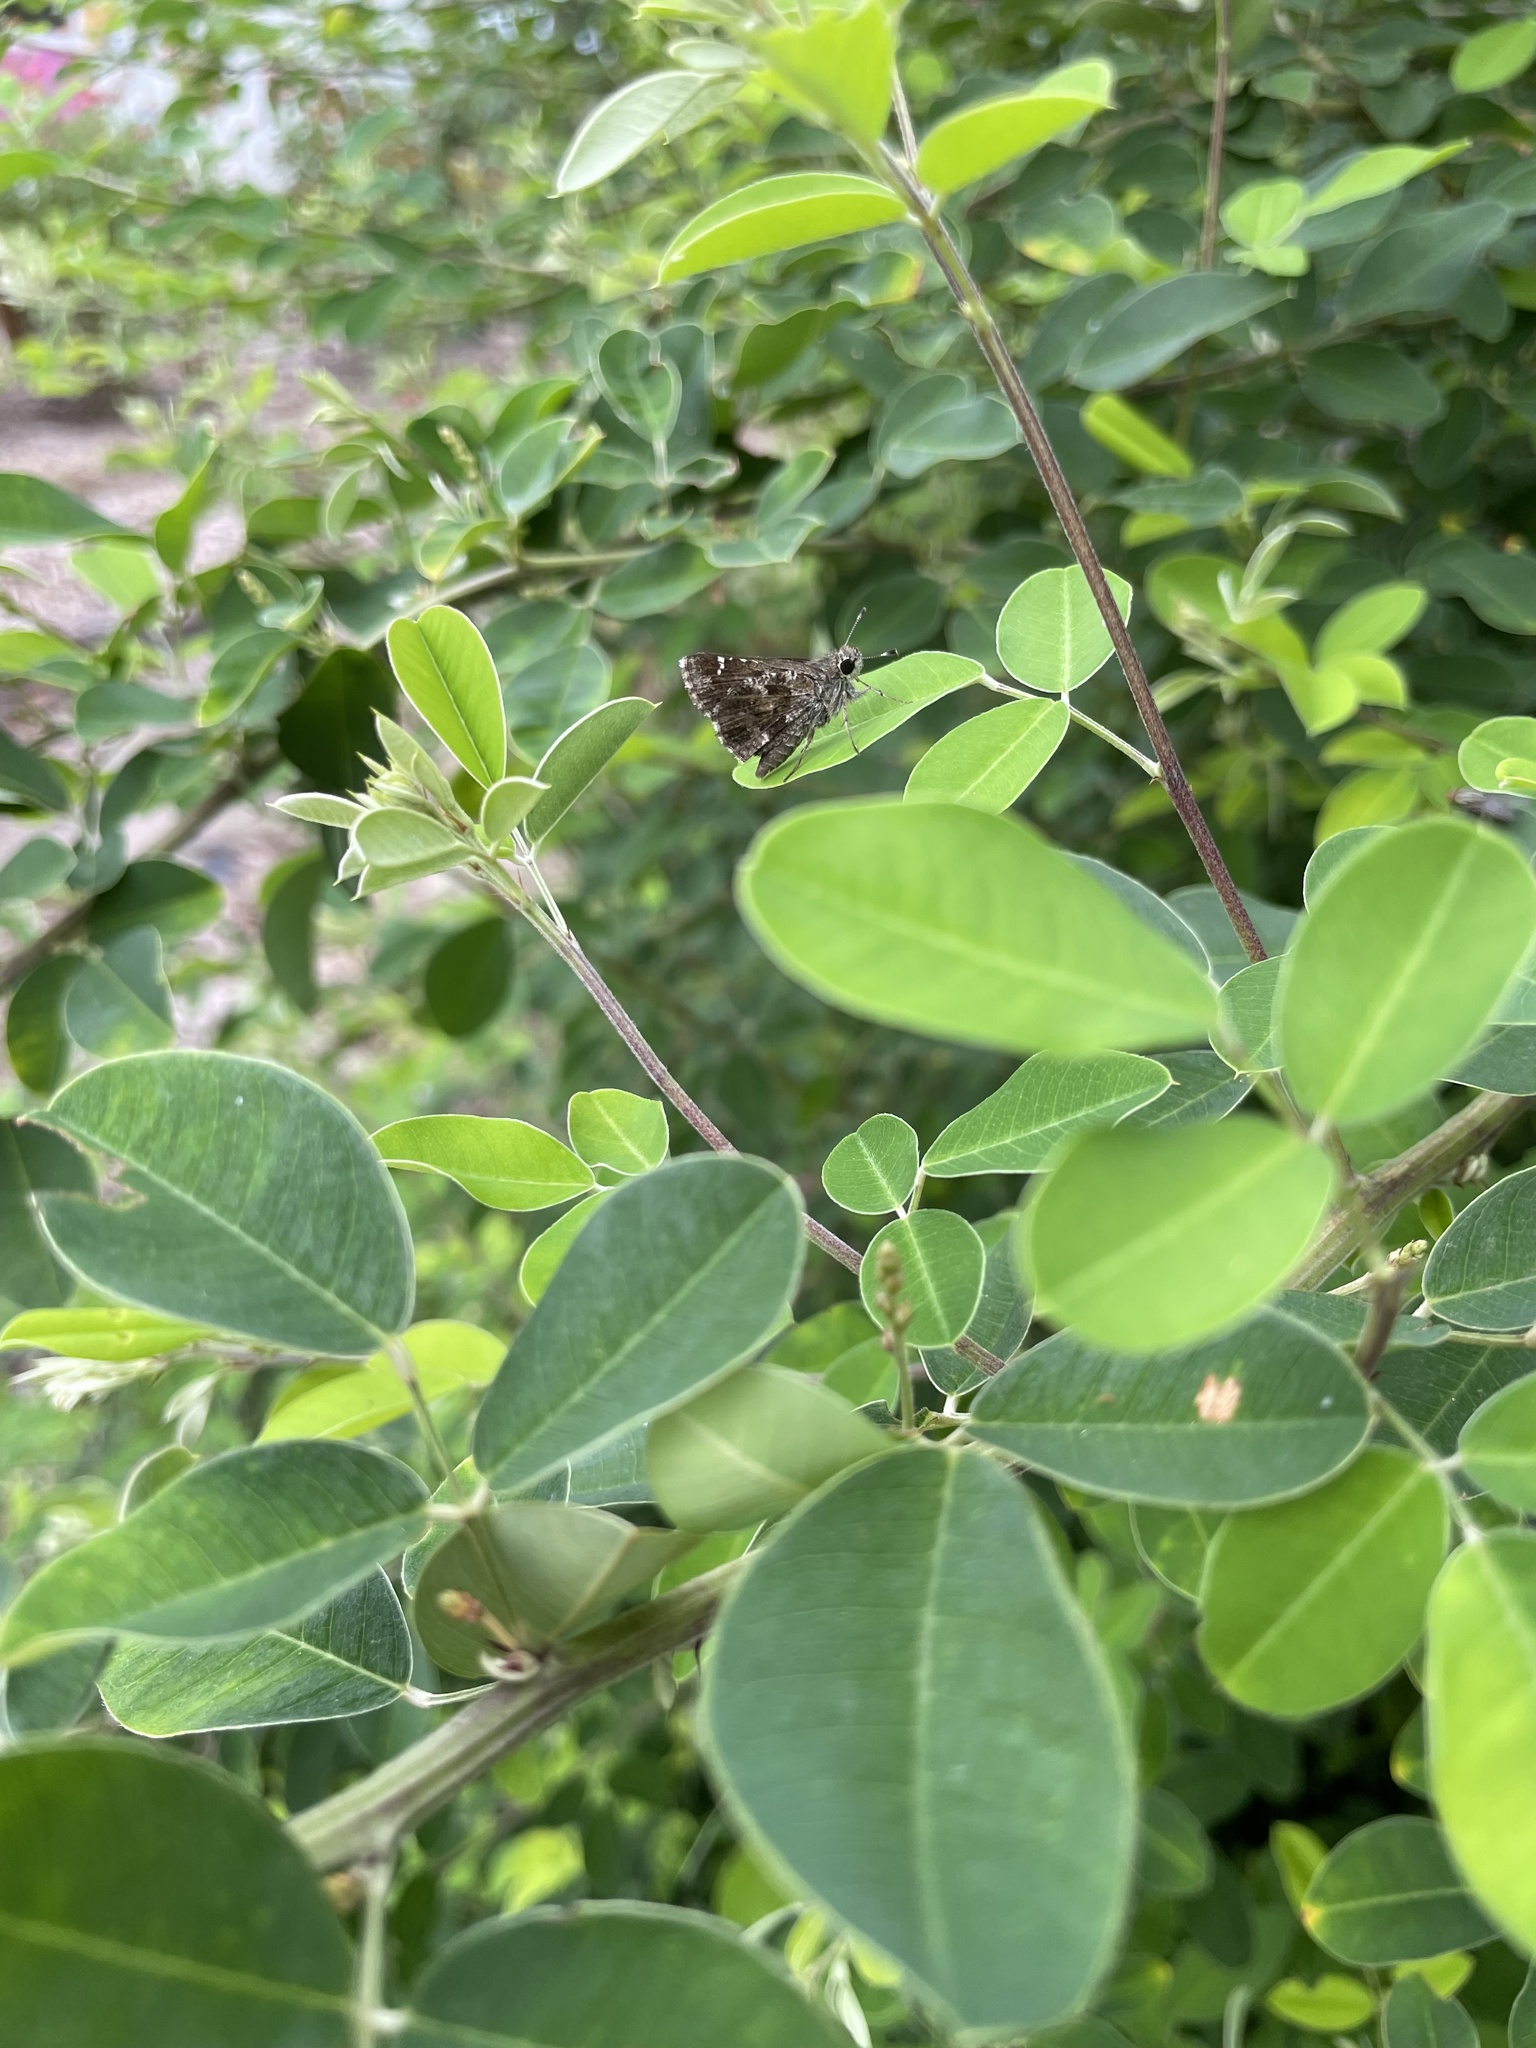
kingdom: Animalia
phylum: Arthropoda
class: Insecta
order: Lepidoptera
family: Hesperiidae
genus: Mastor
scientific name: Mastor nysa
